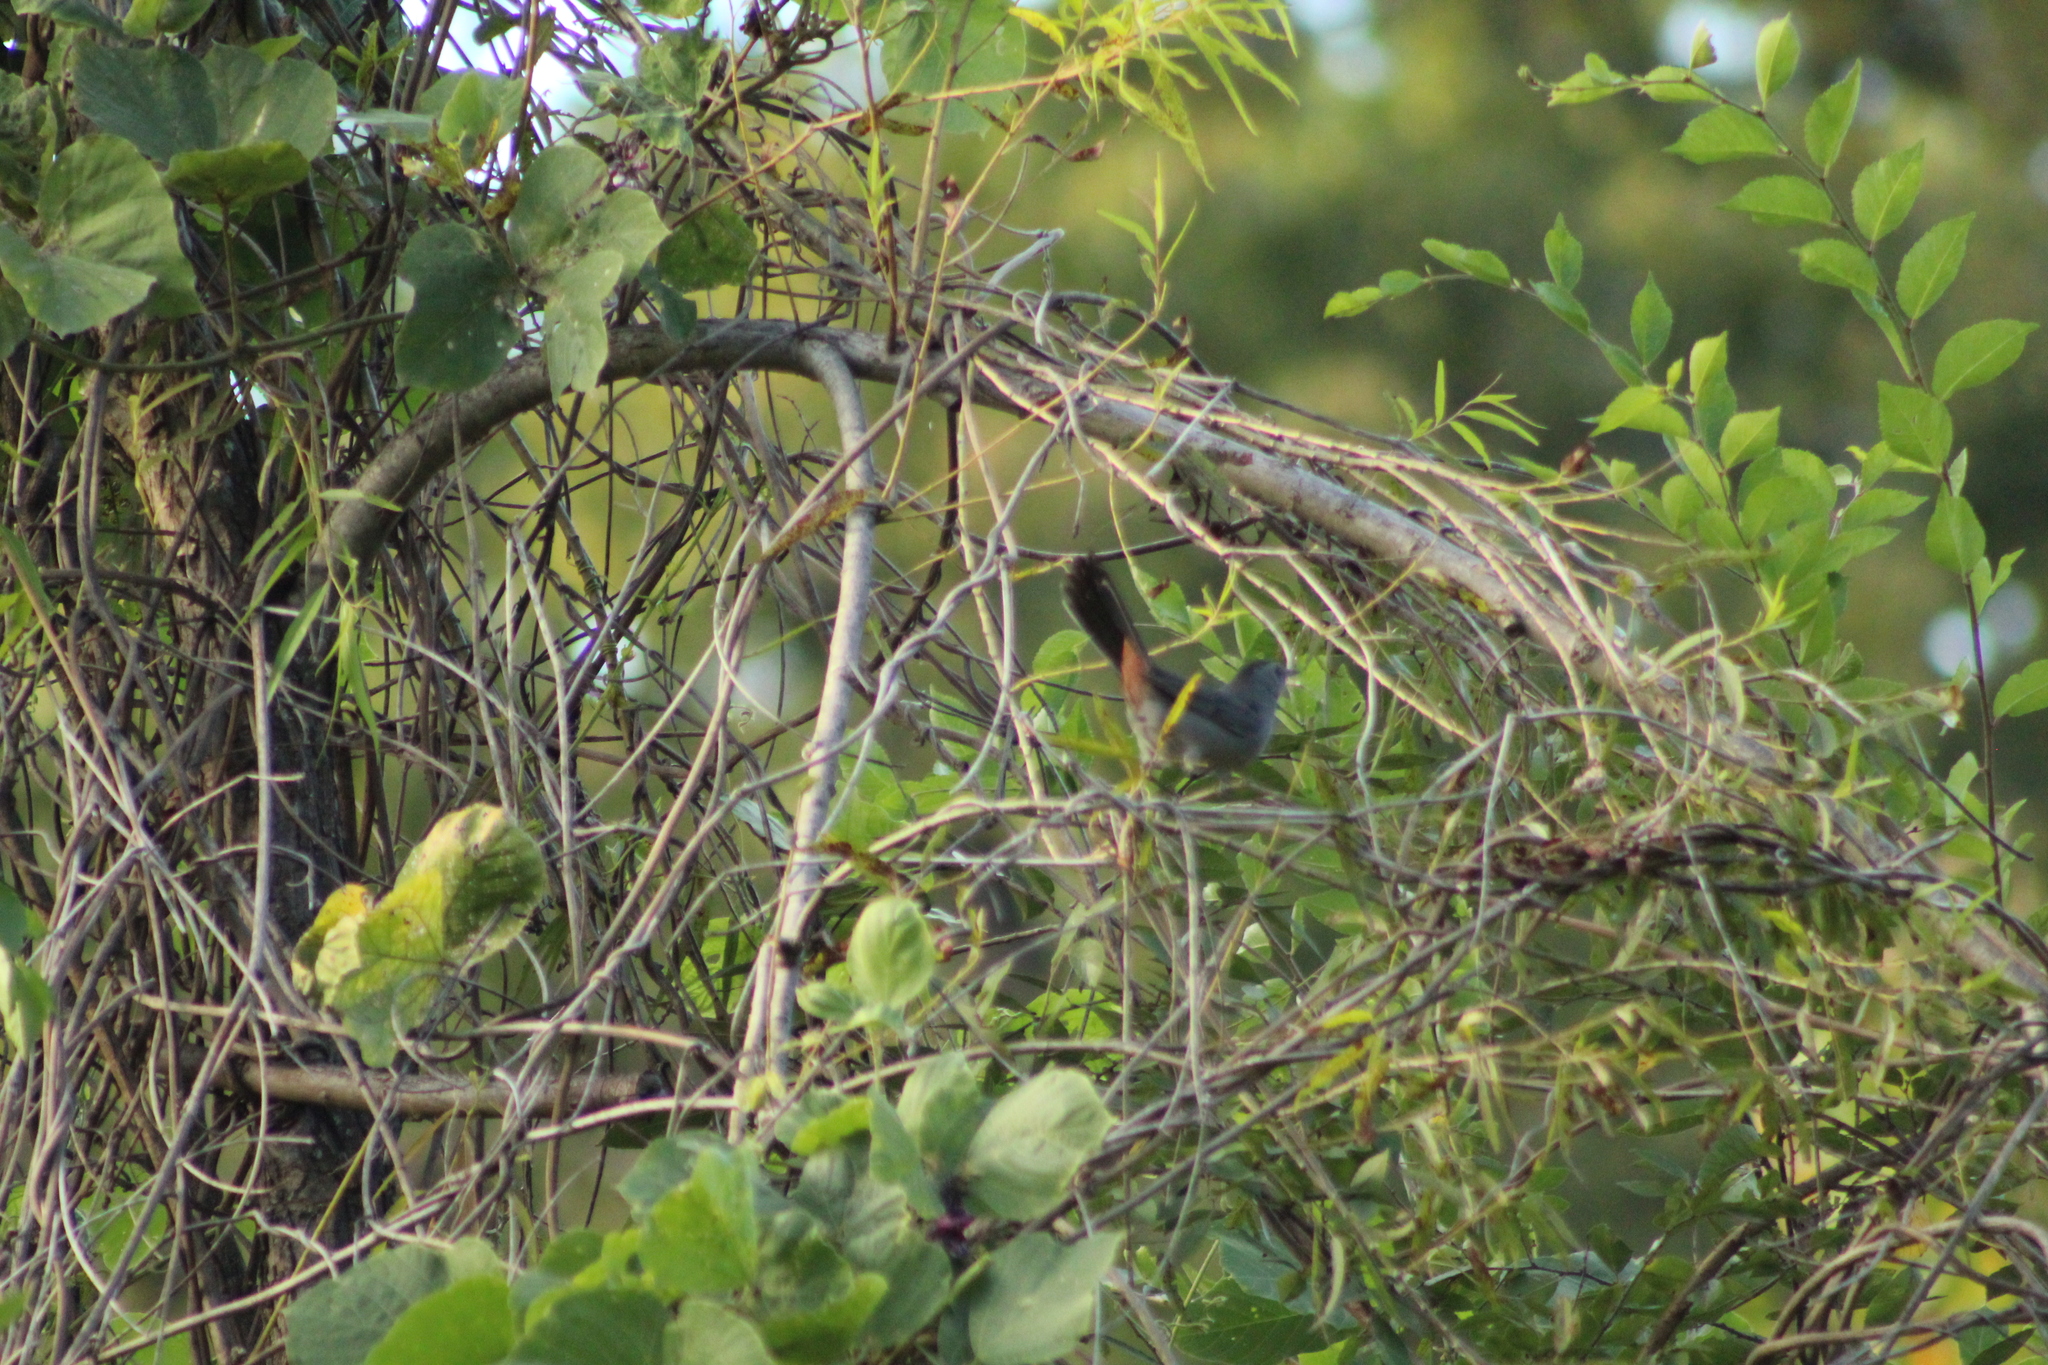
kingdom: Animalia
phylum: Chordata
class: Aves
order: Passeriformes
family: Mimidae
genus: Dumetella
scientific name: Dumetella carolinensis
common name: Gray catbird
